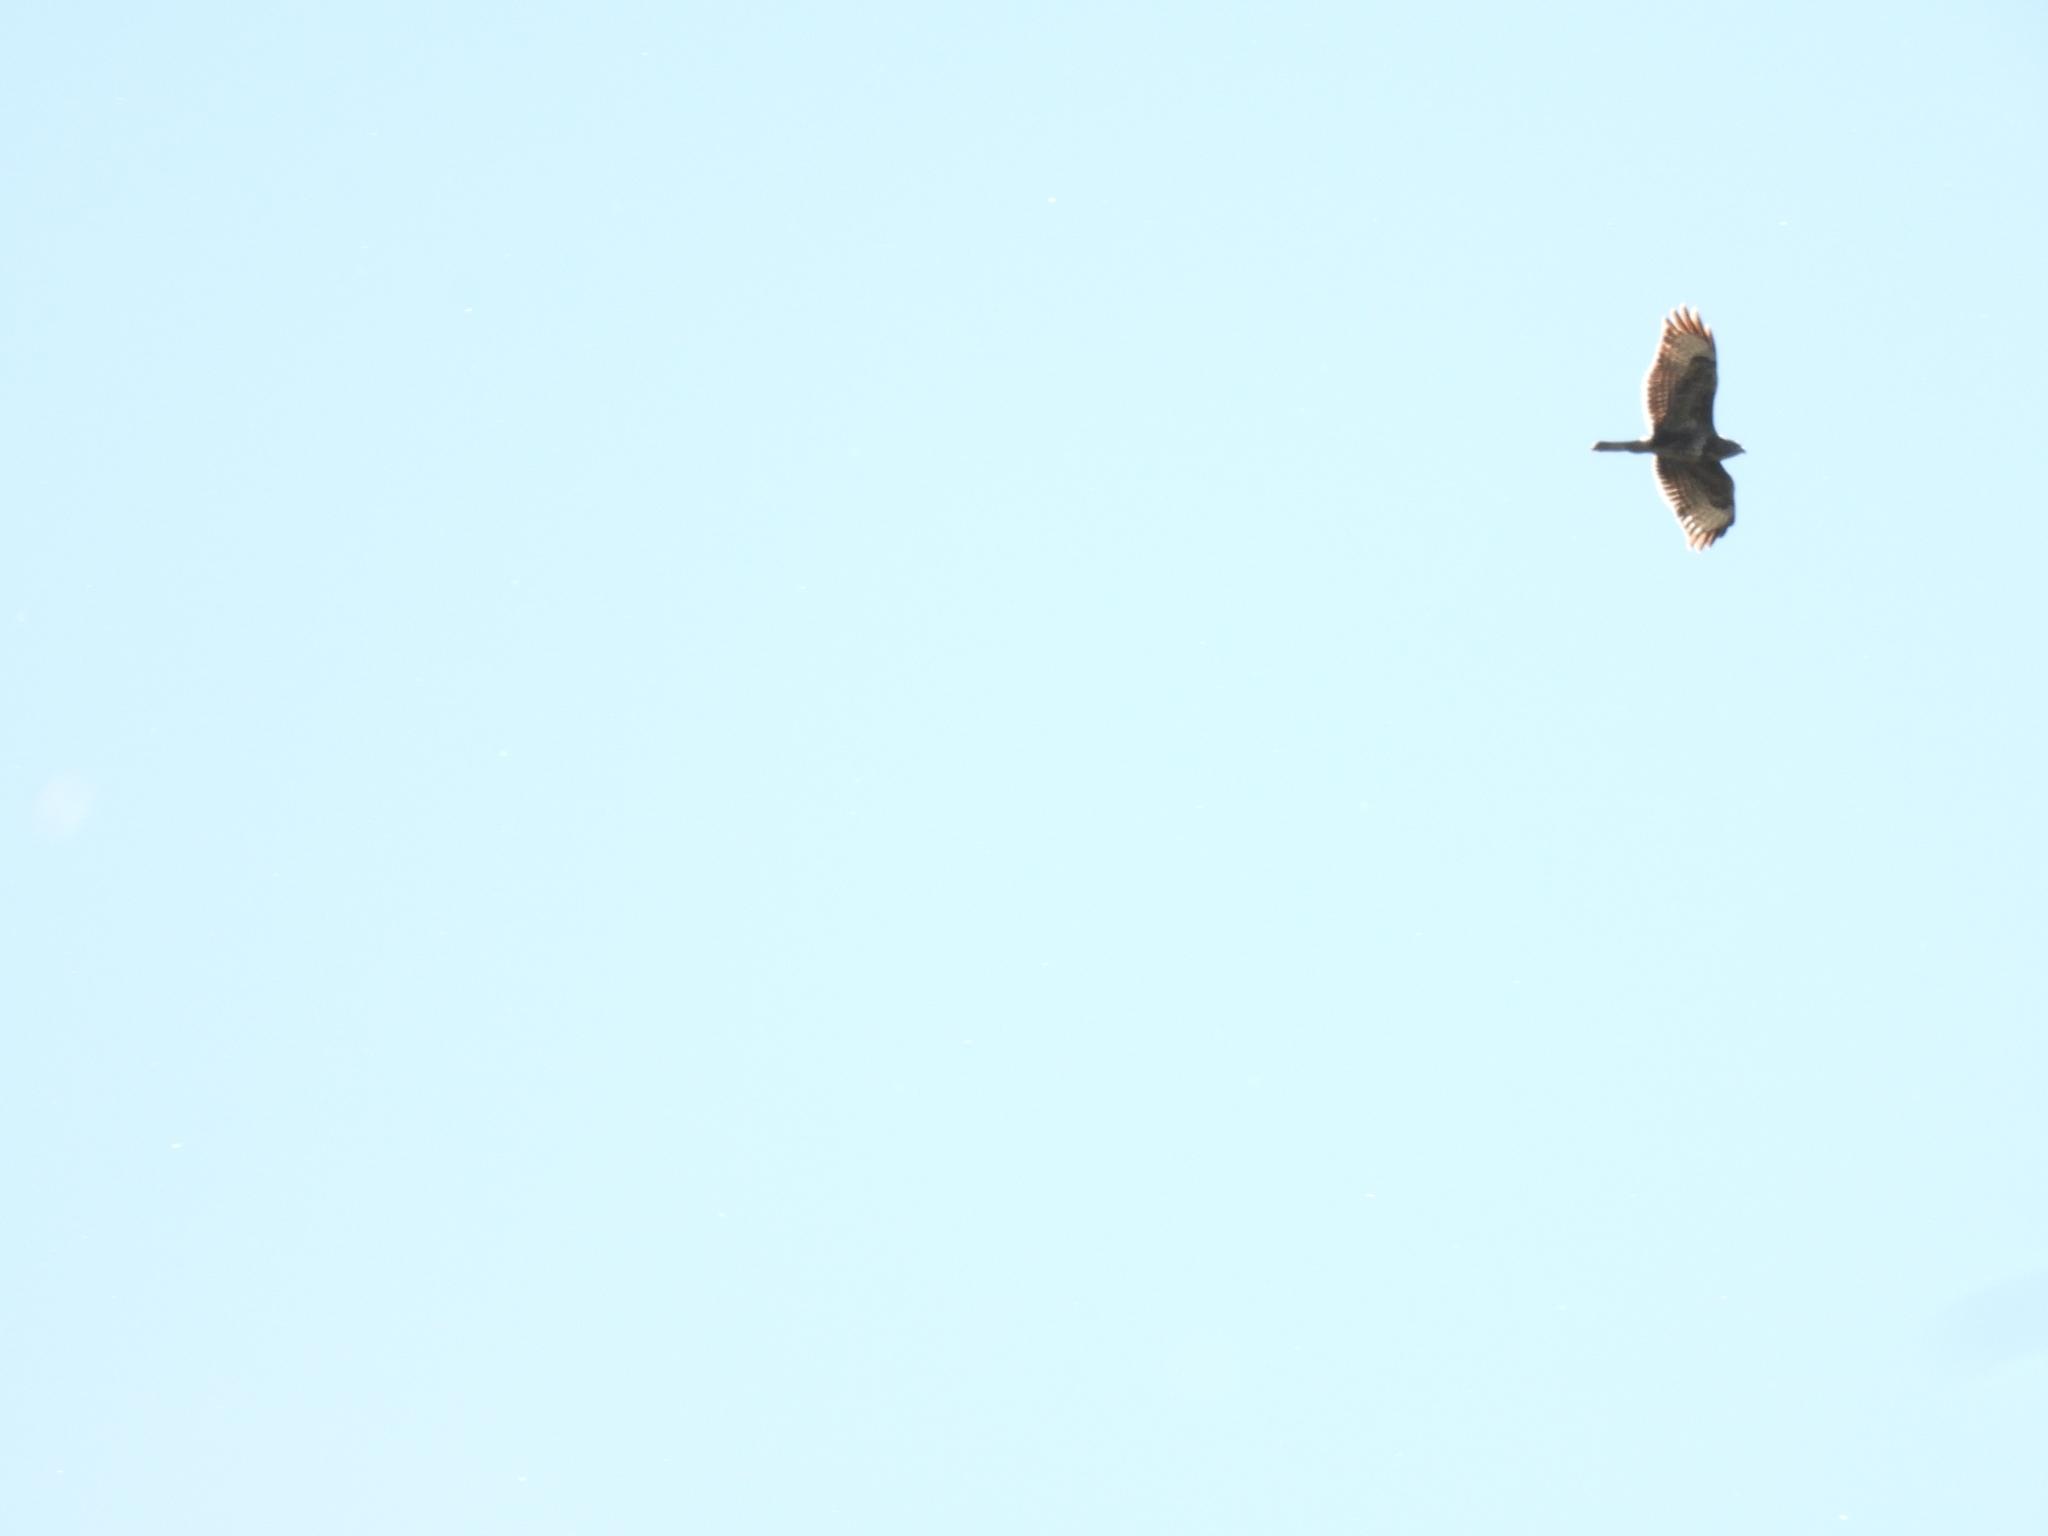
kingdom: Animalia
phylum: Chordata
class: Aves
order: Accipitriformes
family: Accipitridae
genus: Buteo
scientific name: Buteo buteo
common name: Common buzzard
